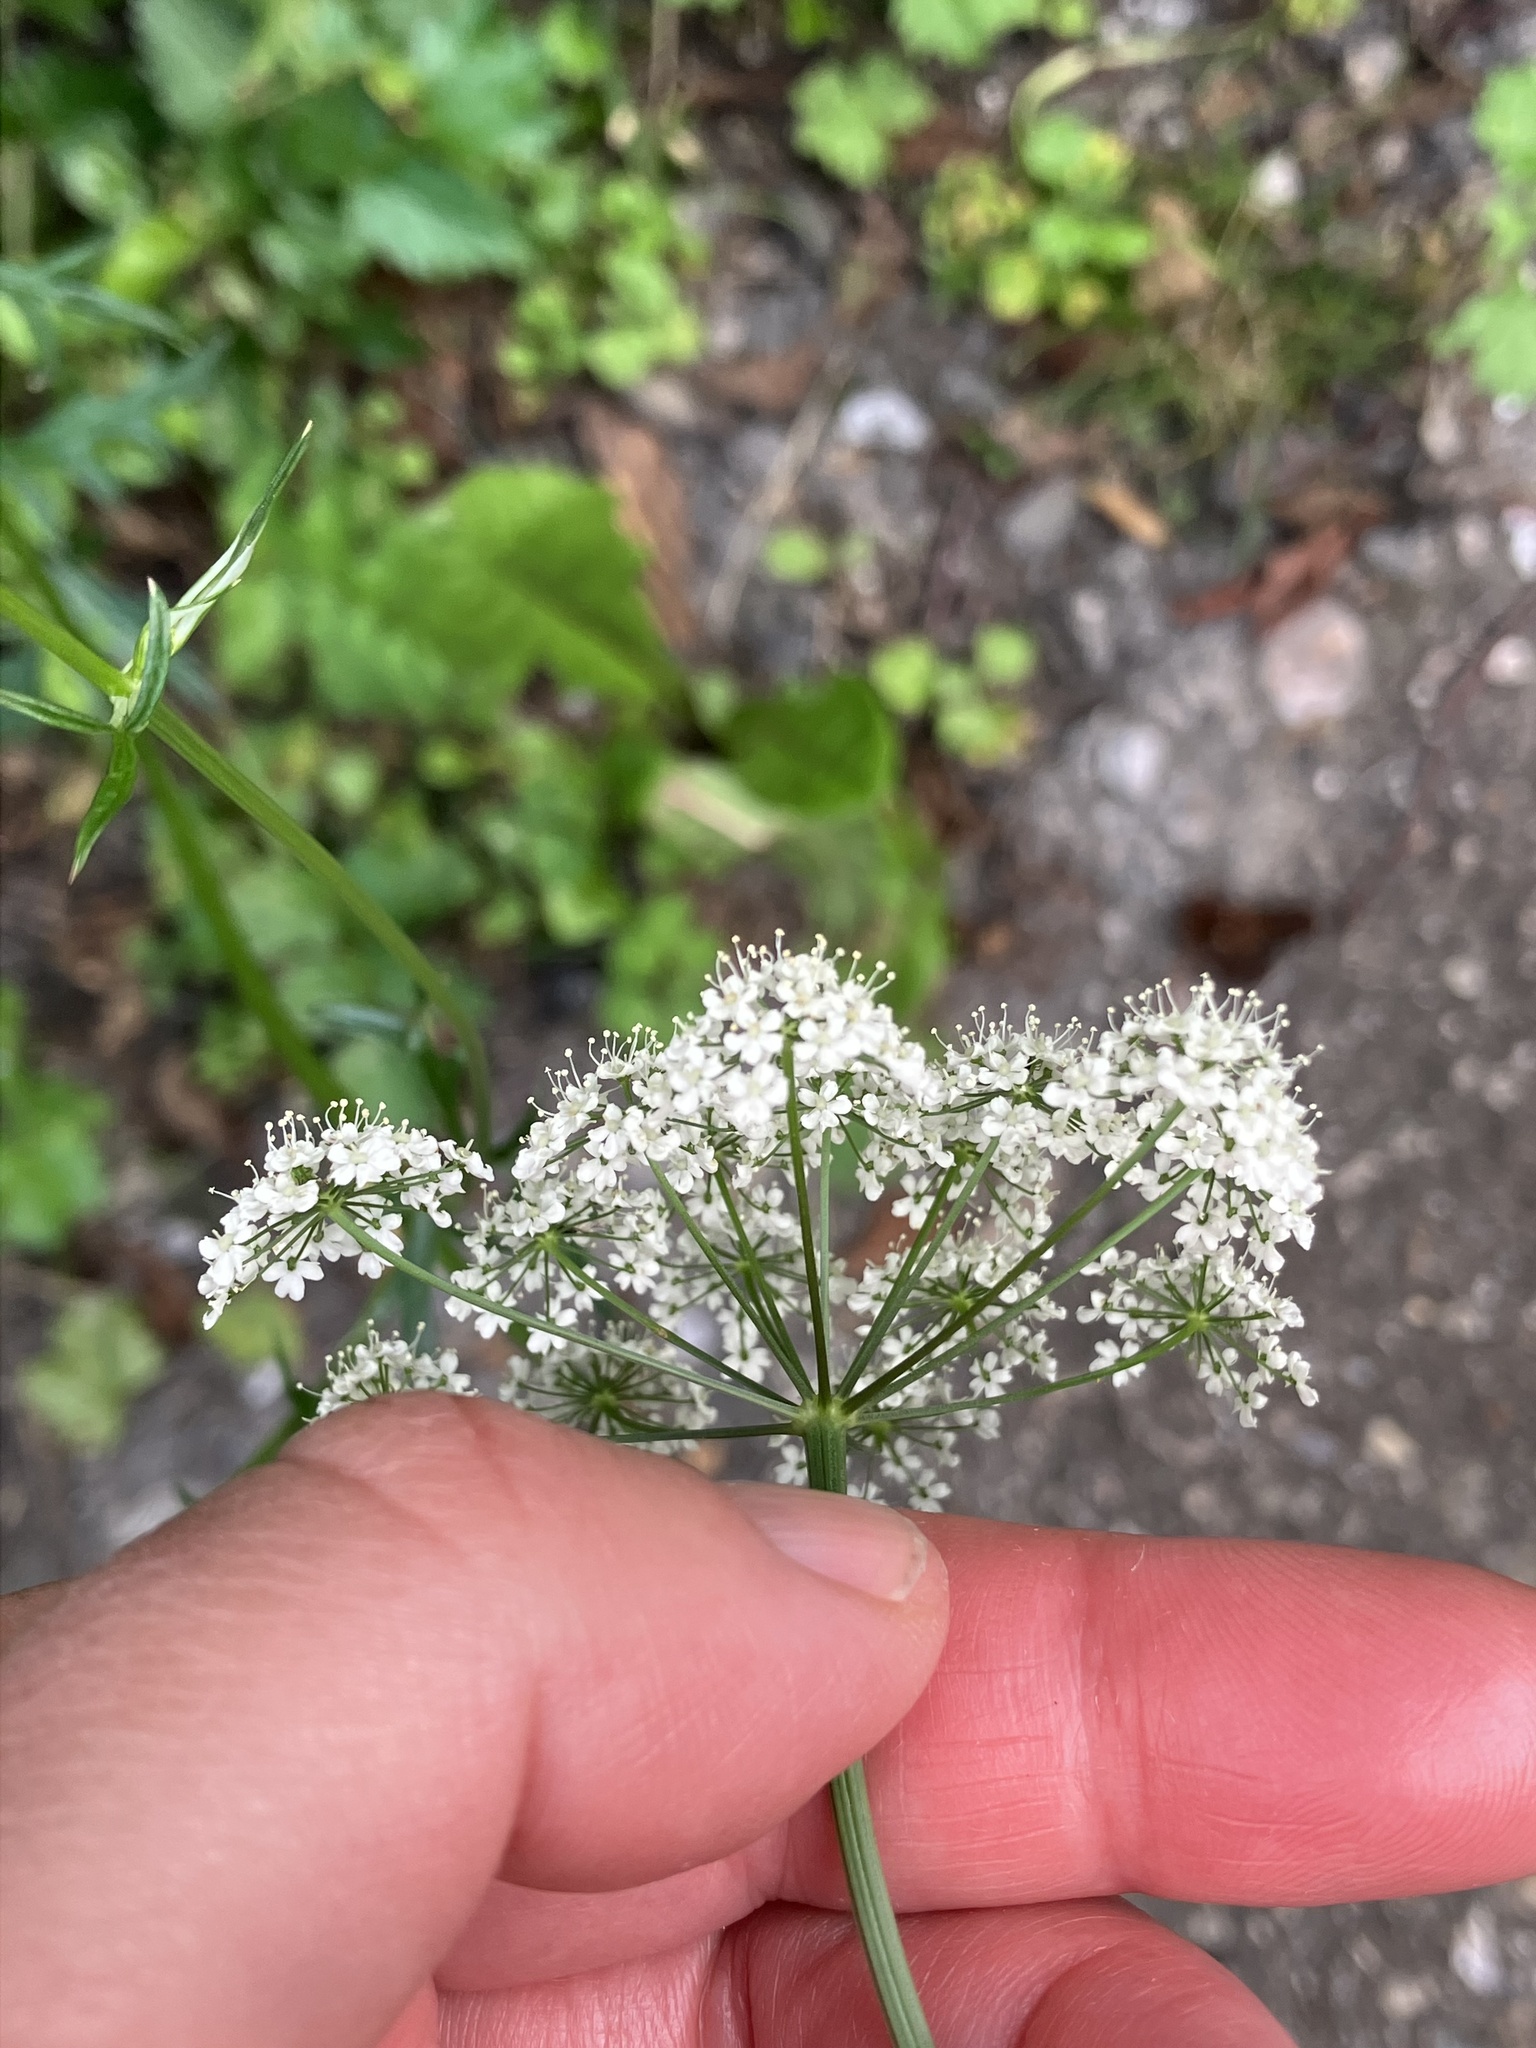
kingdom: Plantae
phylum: Tracheophyta
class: Magnoliopsida
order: Apiales
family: Apiaceae
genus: Pimpinella
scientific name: Pimpinella major
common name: Greater burnet-saxifrage
